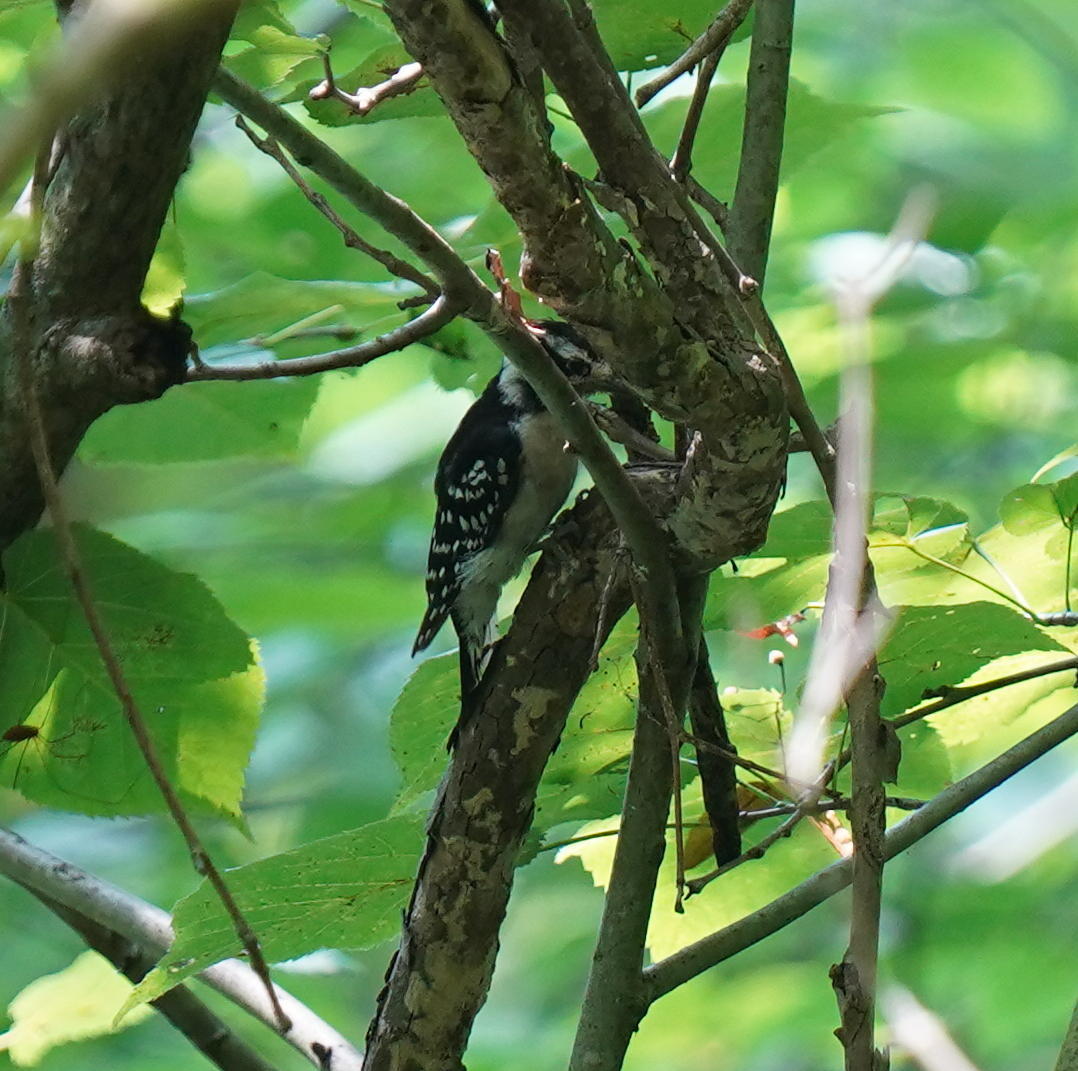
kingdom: Animalia
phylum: Chordata
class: Aves
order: Piciformes
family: Picidae
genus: Dryobates
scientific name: Dryobates pubescens
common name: Downy woodpecker
